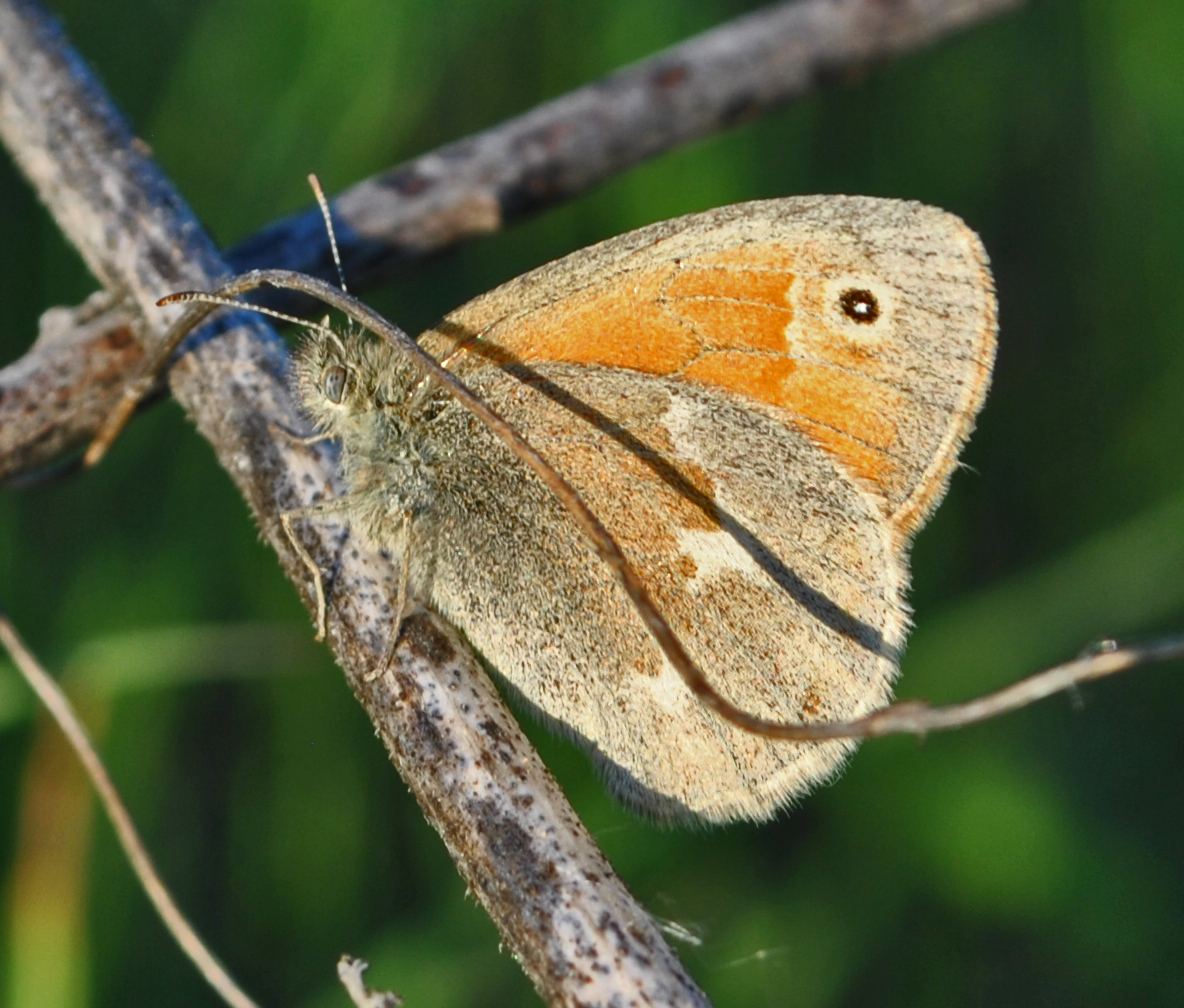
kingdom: Animalia
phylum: Arthropoda
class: Insecta
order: Lepidoptera
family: Nymphalidae
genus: Coenonympha
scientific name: Coenonympha california
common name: Common ringlet
